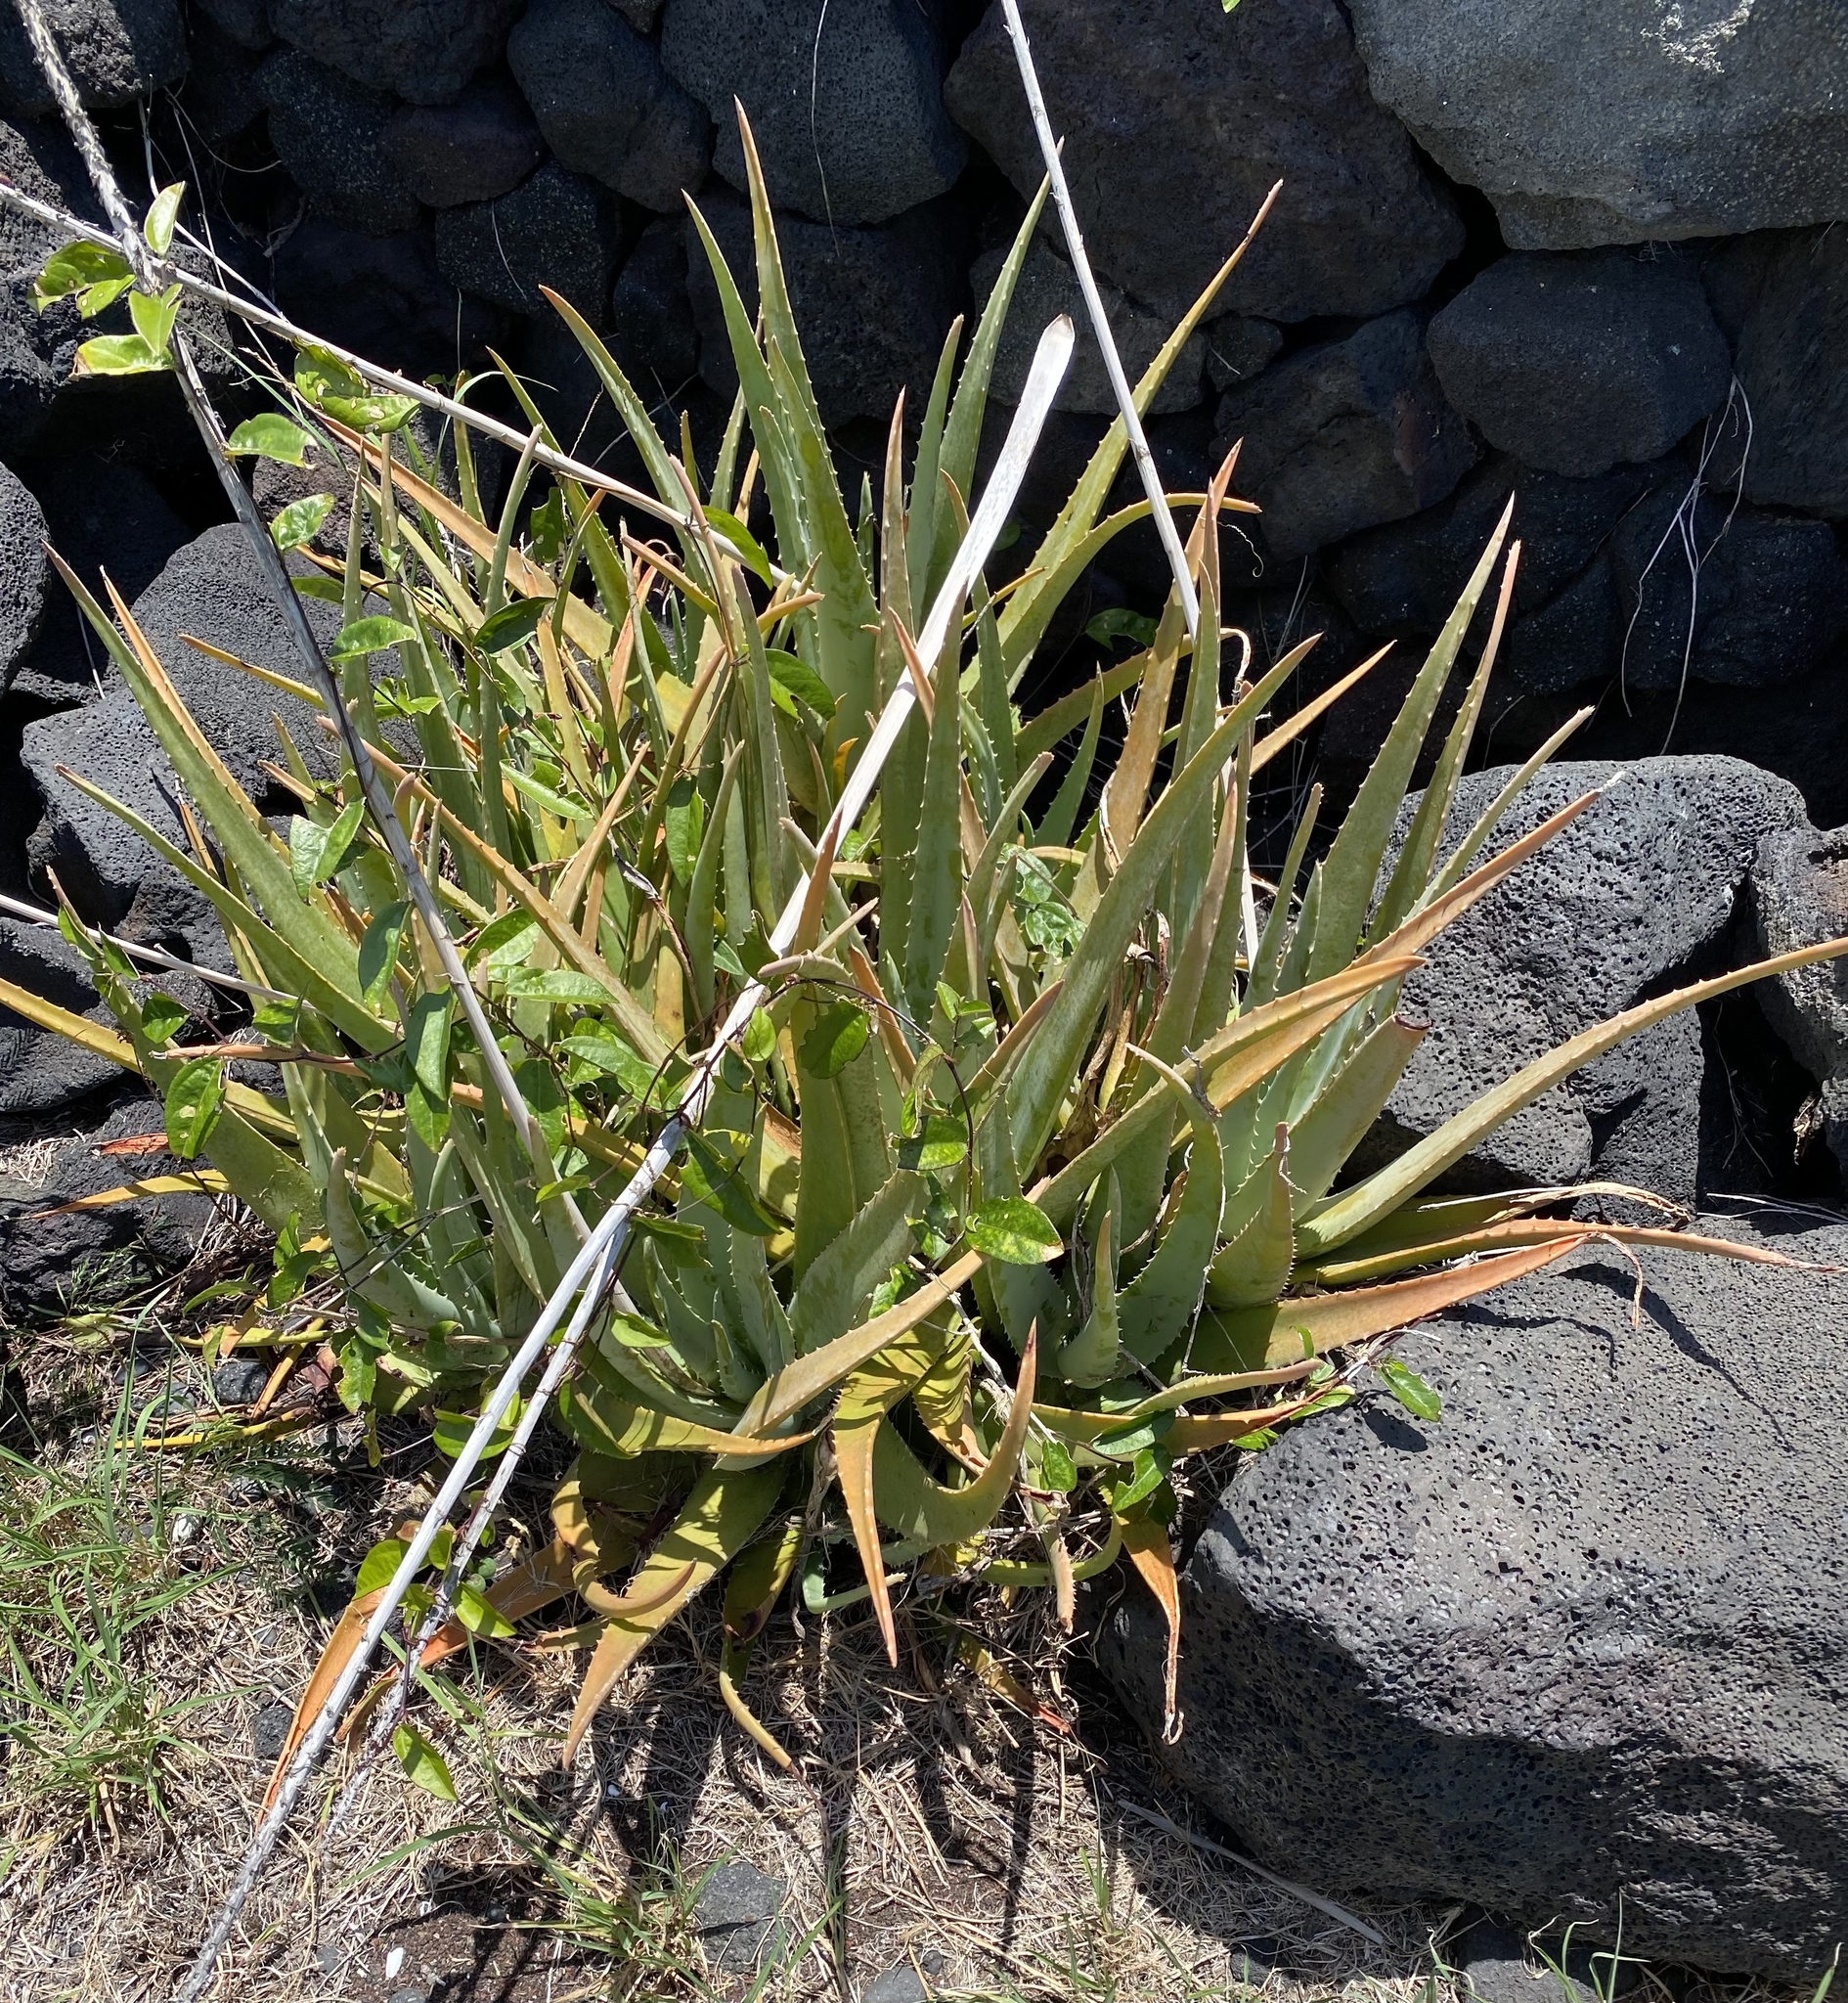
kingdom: Plantae
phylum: Tracheophyta
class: Liliopsida
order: Asparagales
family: Asphodelaceae
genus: Aloe
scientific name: Aloe vera
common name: Barbados aloe
